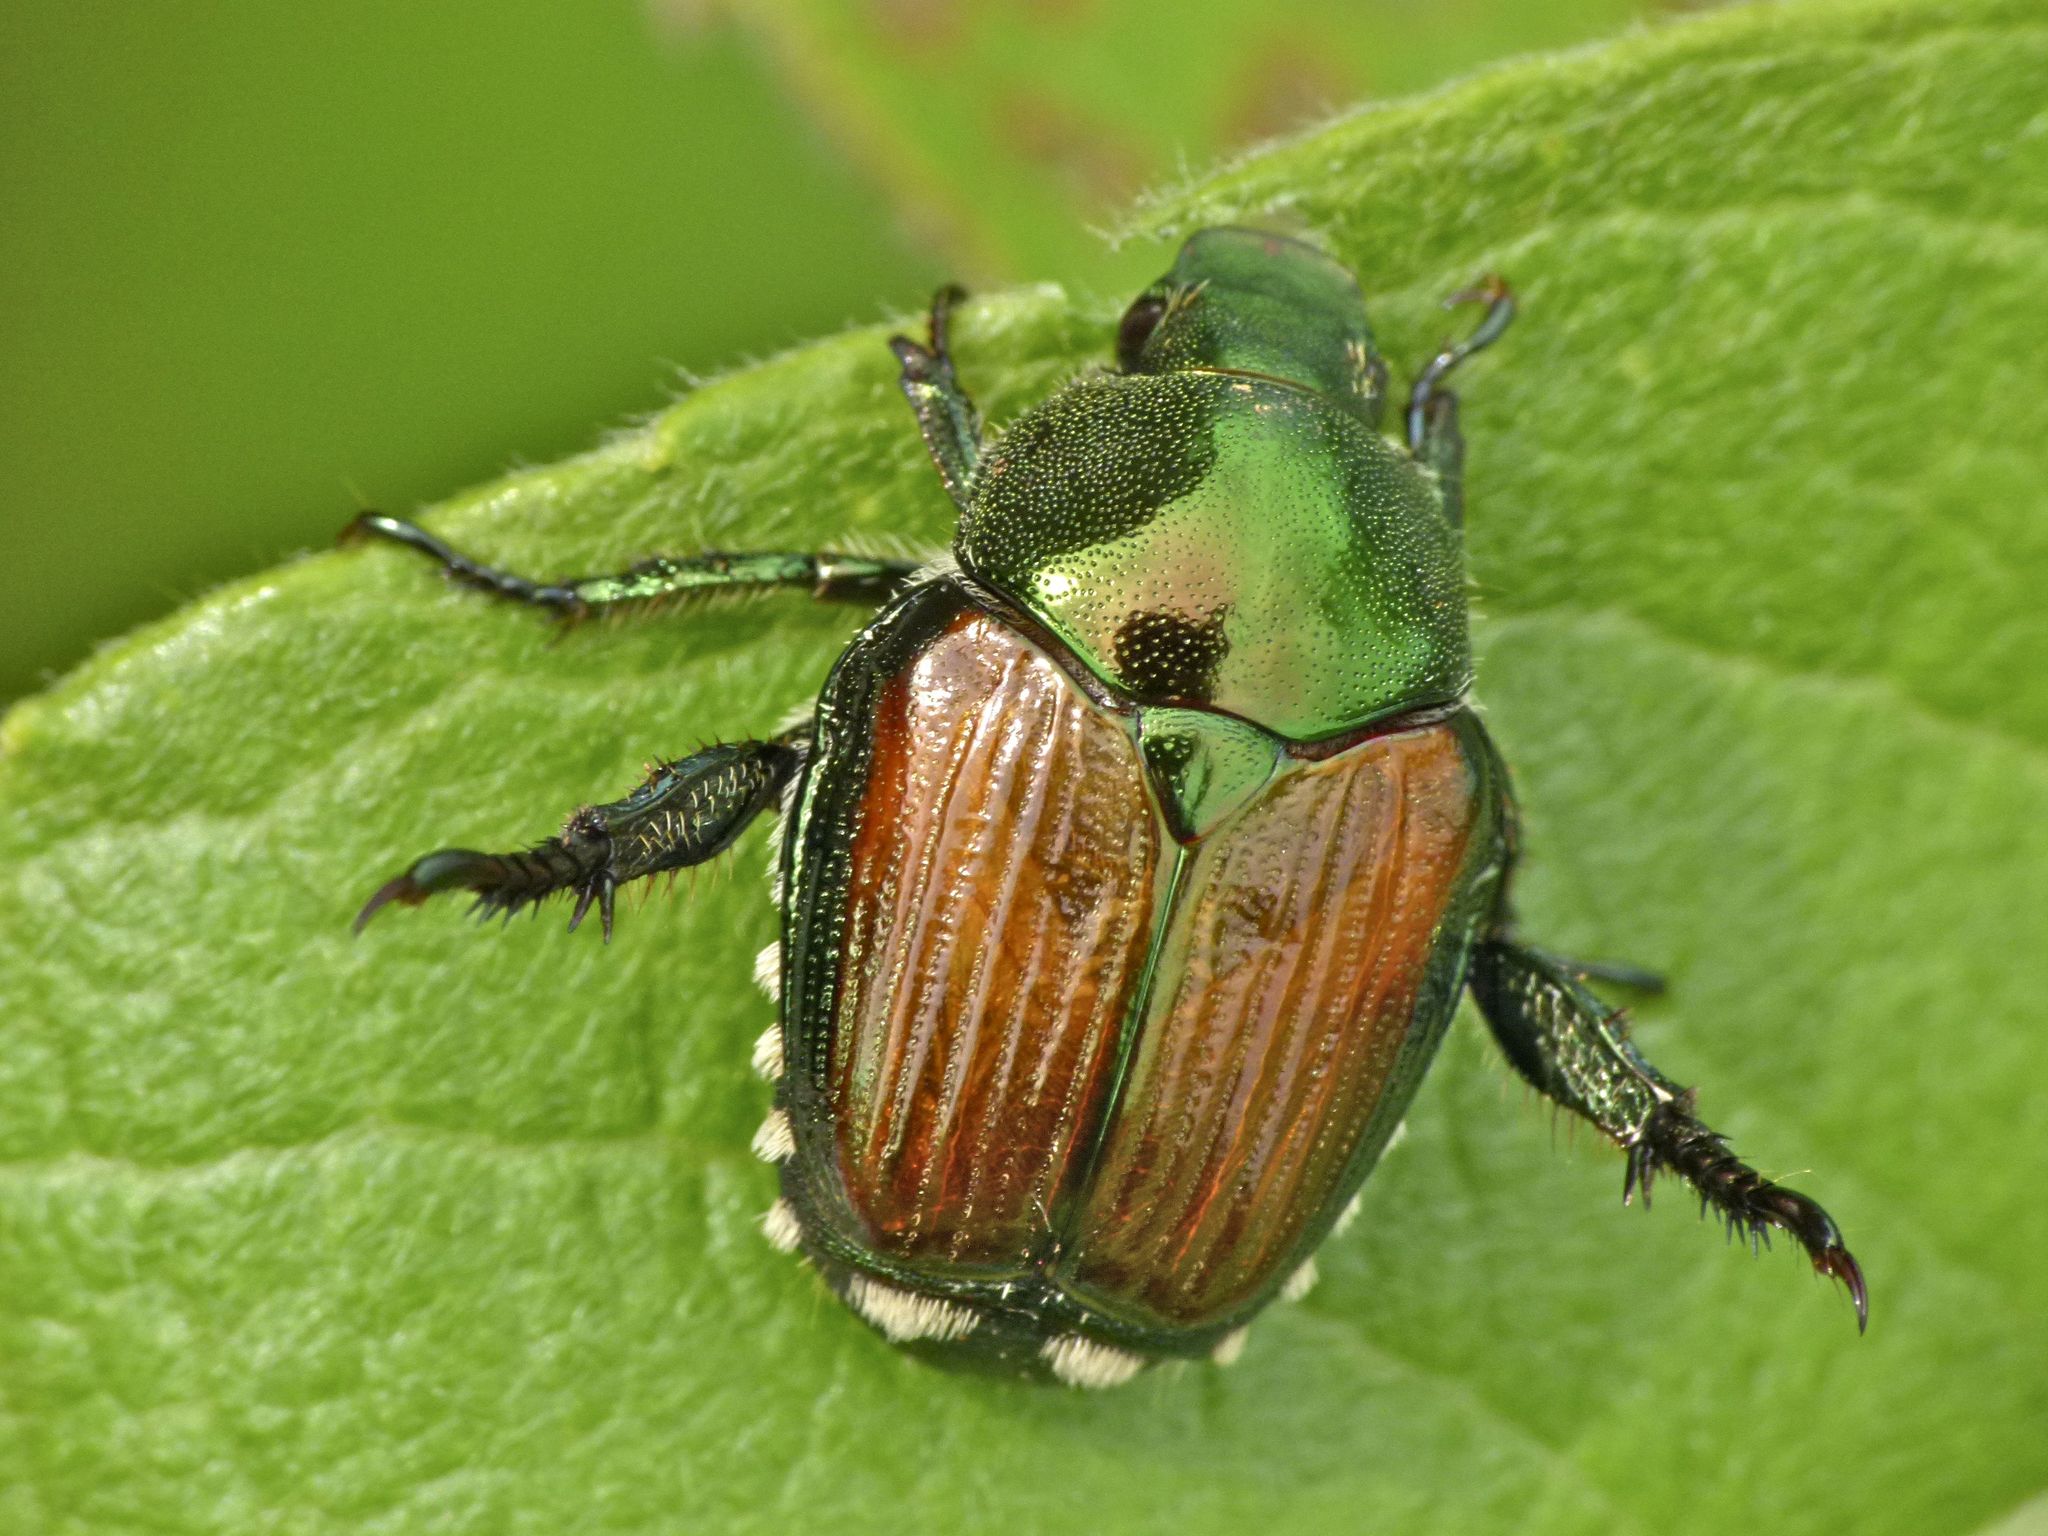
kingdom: Animalia
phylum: Arthropoda
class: Insecta
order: Coleoptera
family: Scarabaeidae
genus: Popillia
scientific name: Popillia japonica
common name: Japanese beetle
